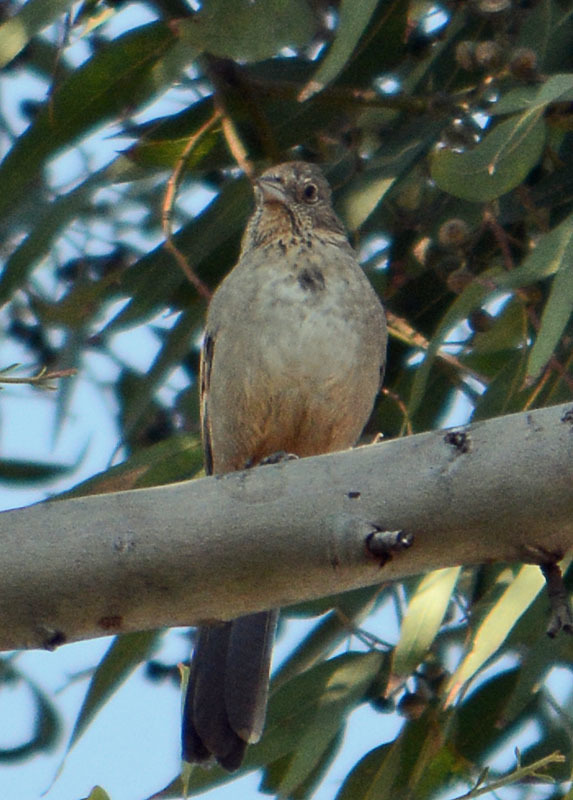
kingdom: Animalia
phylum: Chordata
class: Aves
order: Passeriformes
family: Passerellidae
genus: Melozone
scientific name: Melozone fusca
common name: Canyon towhee
